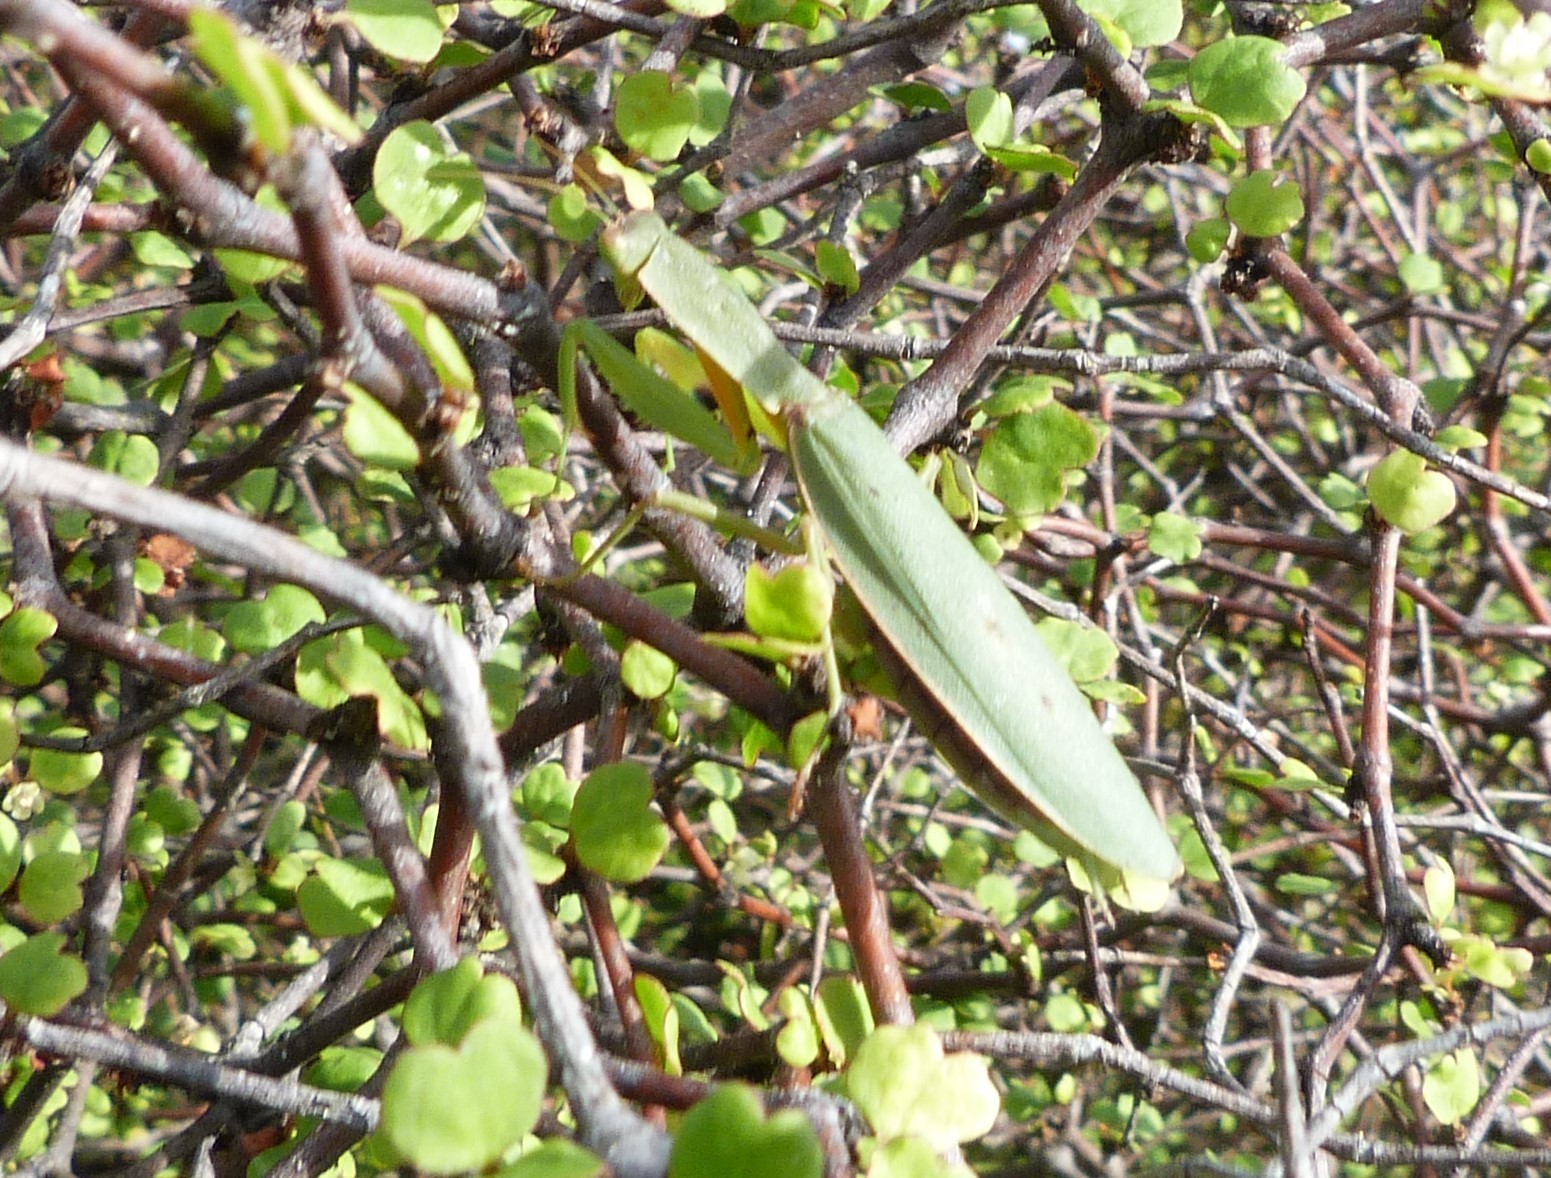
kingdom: Animalia
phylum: Arthropoda
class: Insecta
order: Mantodea
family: Mantidae
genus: Orthodera
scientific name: Orthodera novaezealandiae
